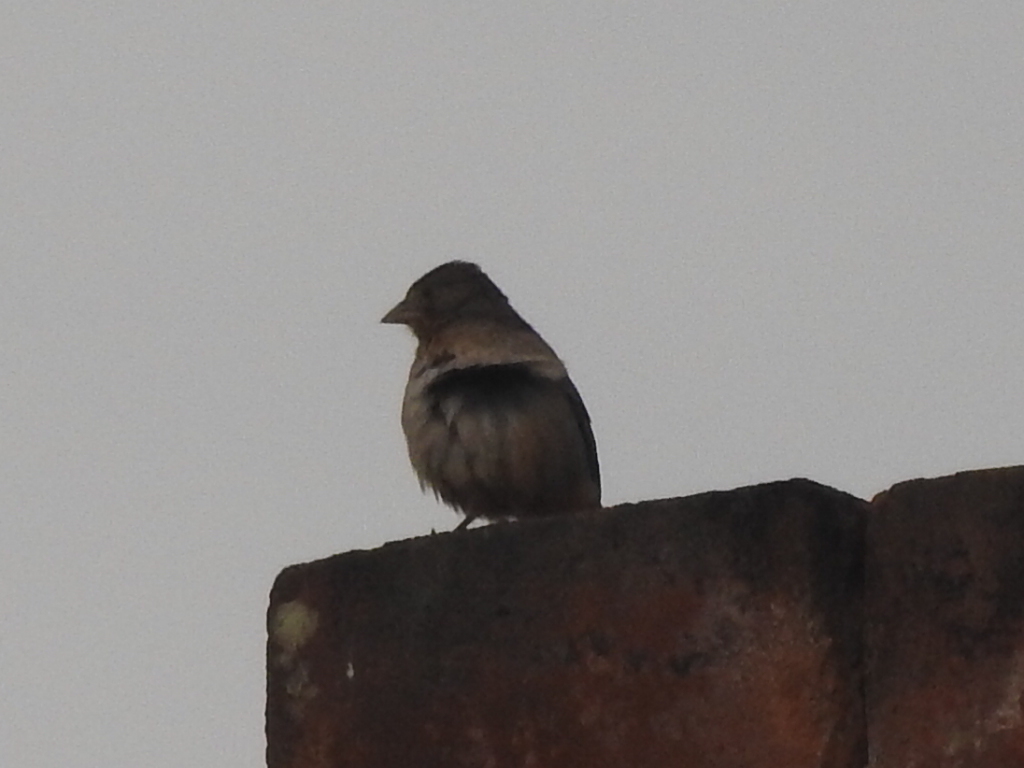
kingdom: Animalia
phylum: Chordata
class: Aves
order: Passeriformes
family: Passerellidae
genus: Melozone
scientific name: Melozone fusca
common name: Canyon towhee
